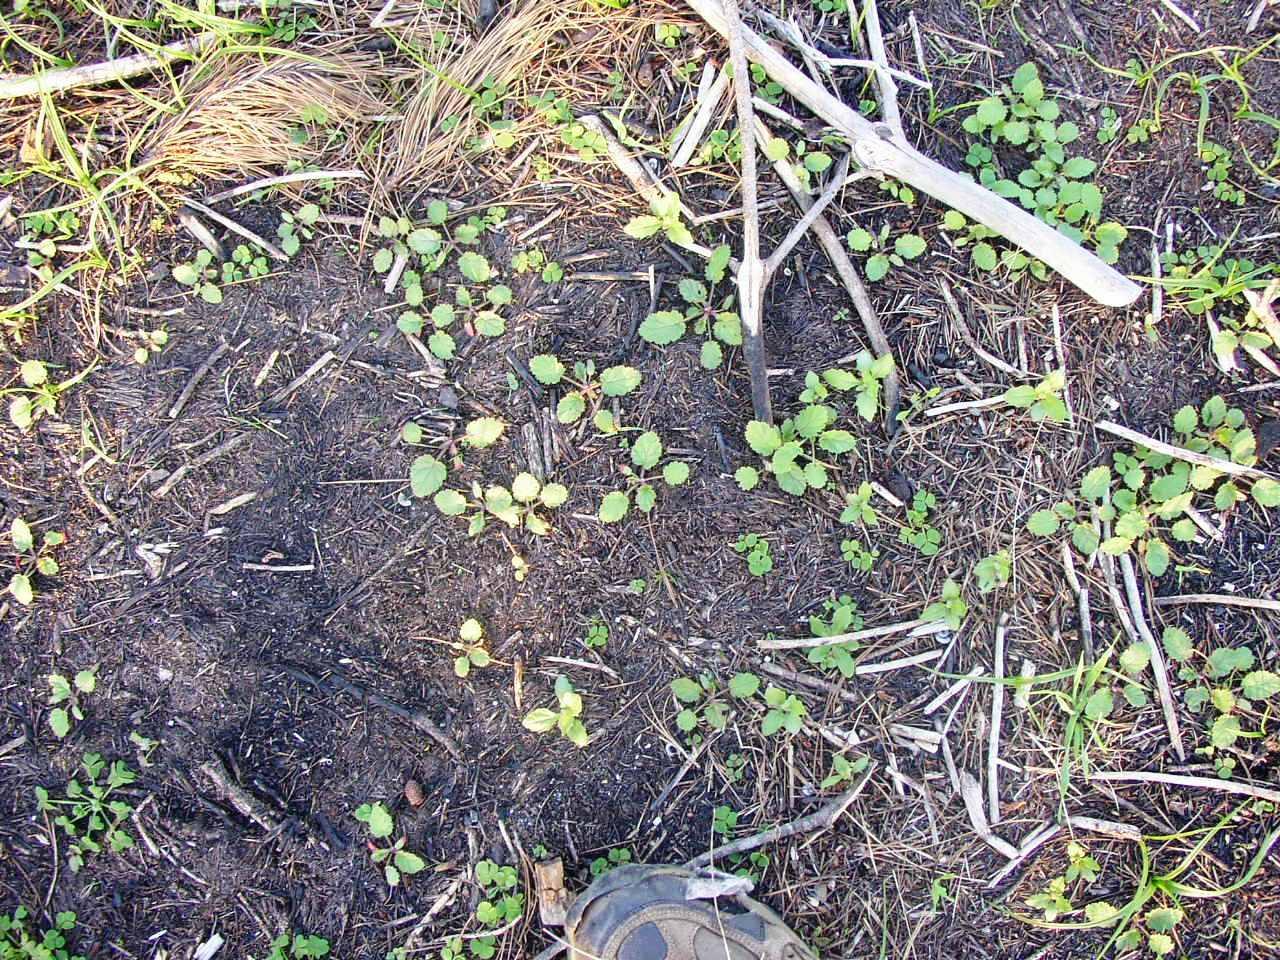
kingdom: Plantae
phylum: Tracheophyta
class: Magnoliopsida
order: Geraniales
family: Geraniaceae
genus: Pelargonium
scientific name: Pelargonium althaeoides
